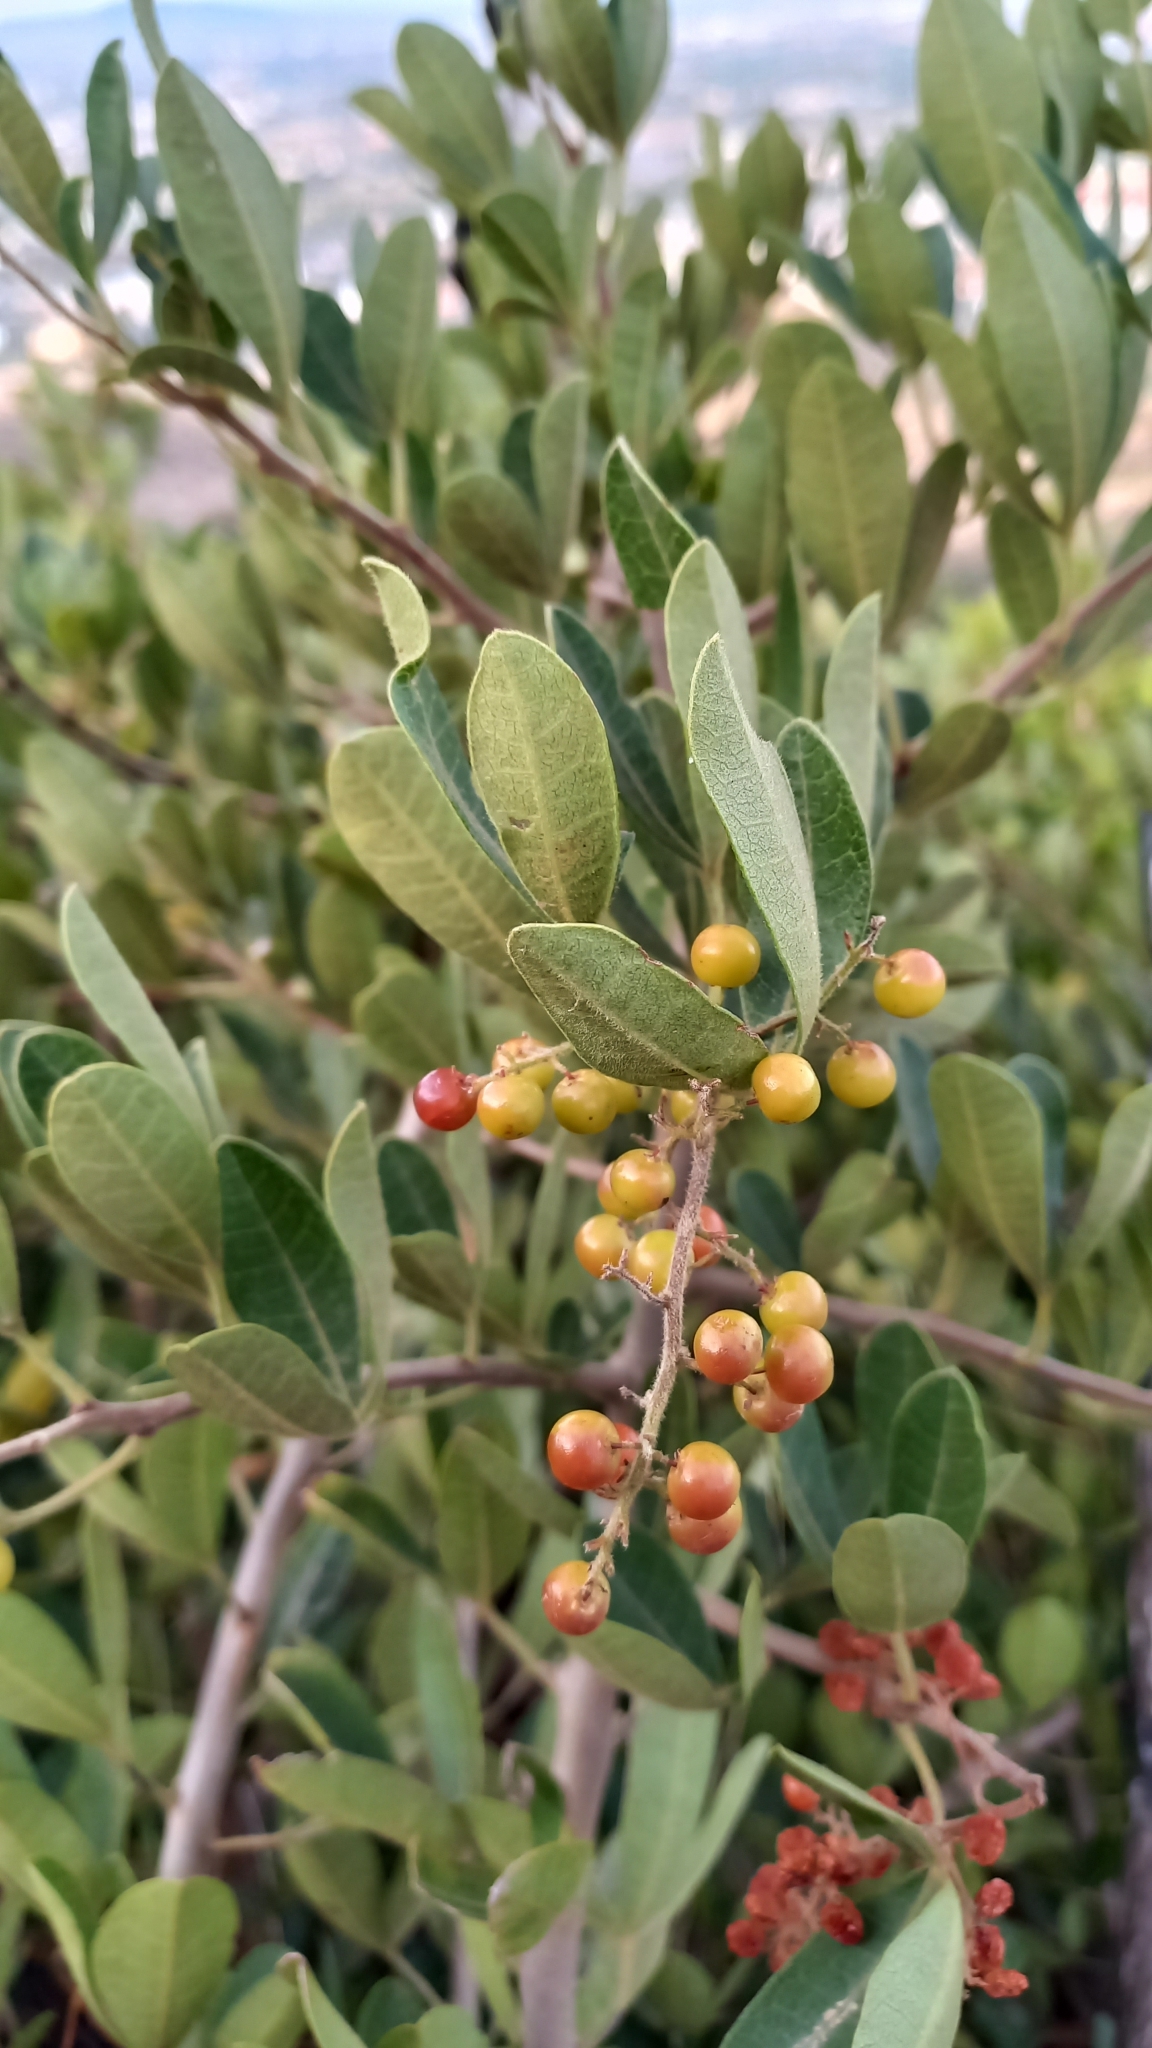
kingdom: Plantae
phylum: Tracheophyta
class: Magnoliopsida
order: Sapindales
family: Anacardiaceae
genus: Searsia
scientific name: Searsia laevigata
